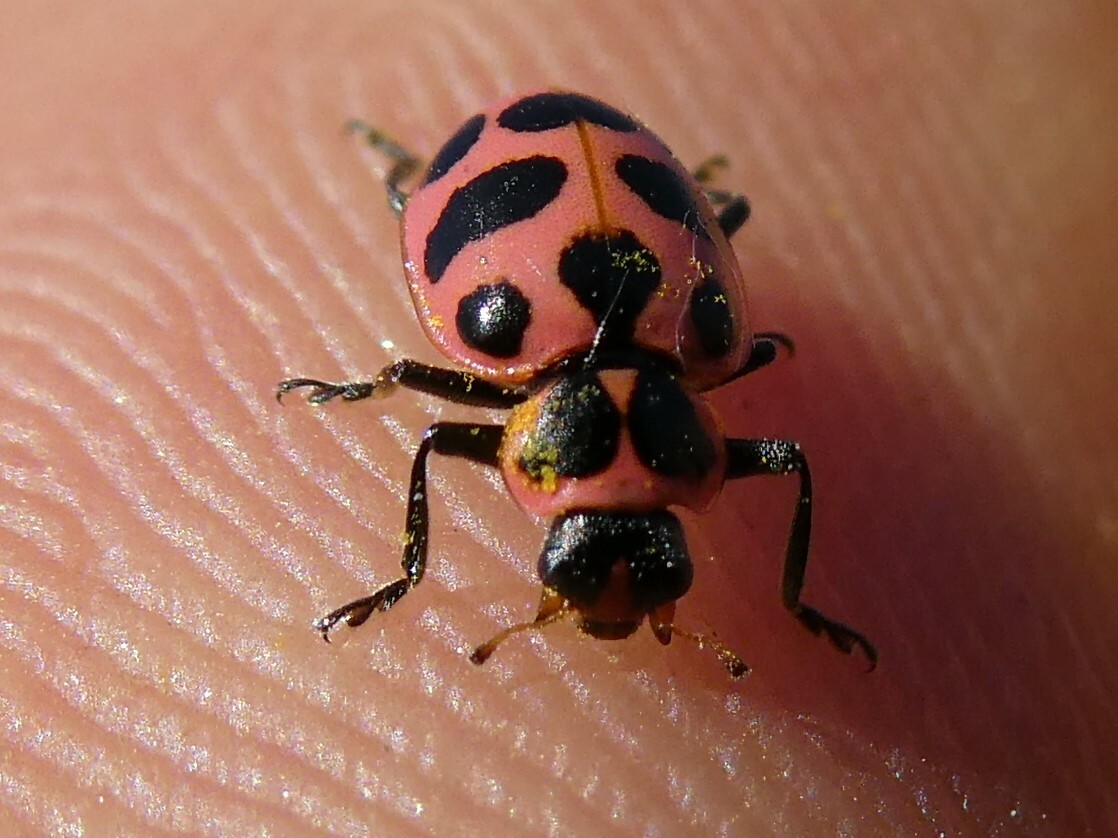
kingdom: Animalia
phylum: Arthropoda
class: Insecta
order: Coleoptera
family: Coccinellidae
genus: Coleomegilla
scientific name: Coleomegilla maculata
